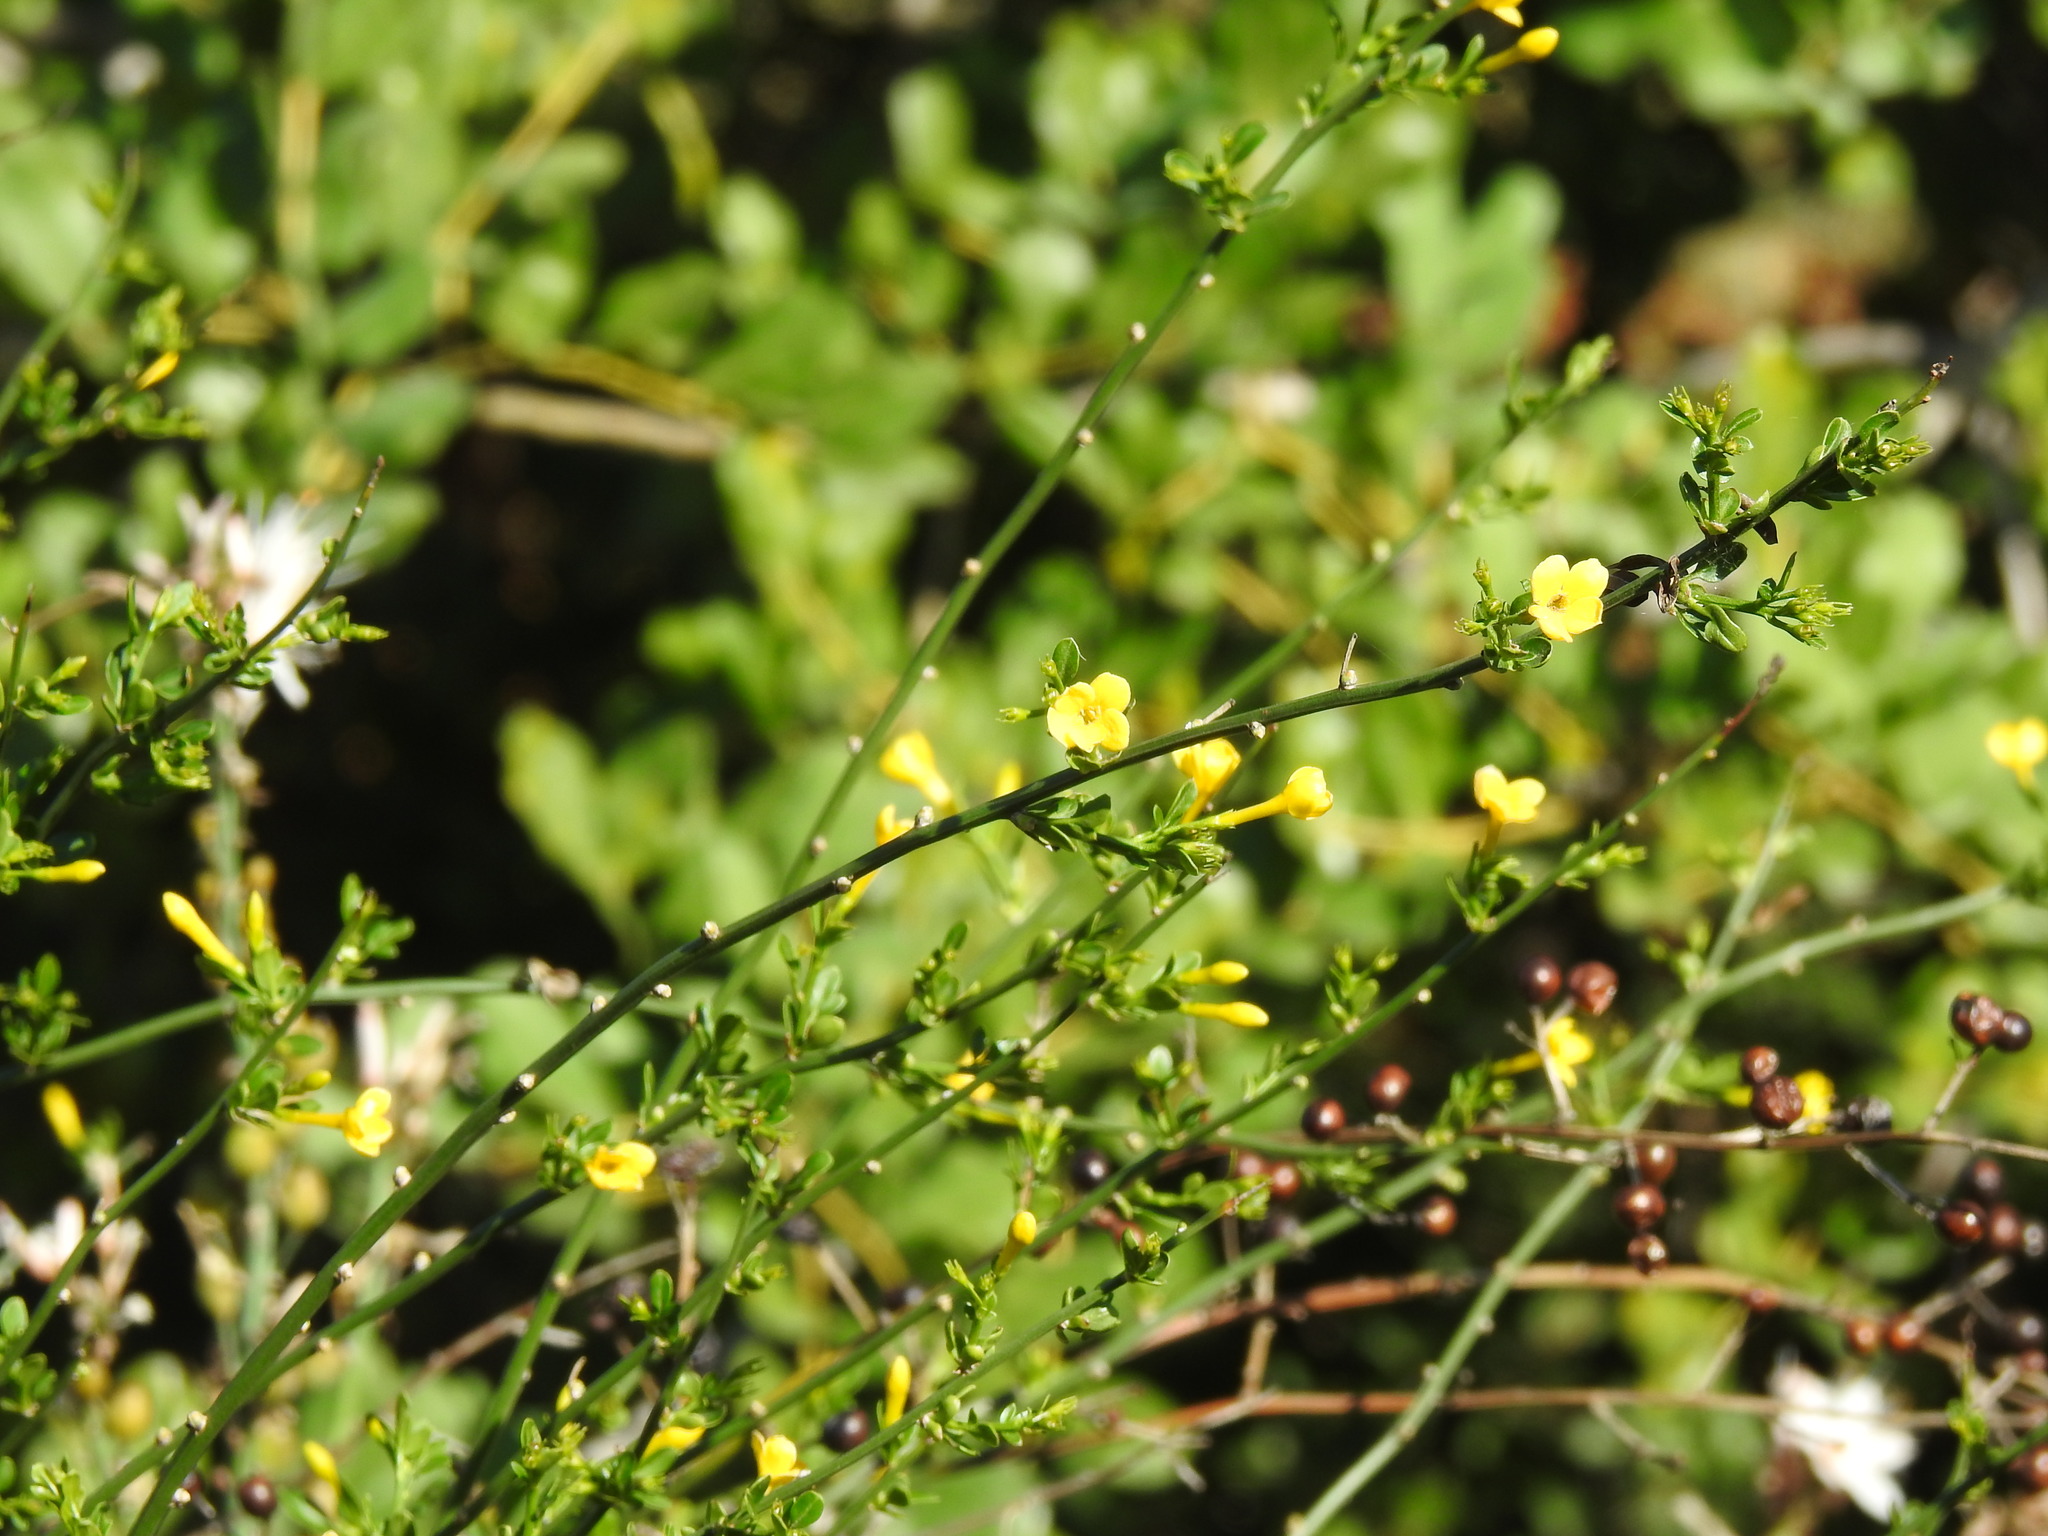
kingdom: Plantae
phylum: Tracheophyta
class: Magnoliopsida
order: Lamiales
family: Oleaceae
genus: Chrysojasminum
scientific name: Chrysojasminum fruticans
